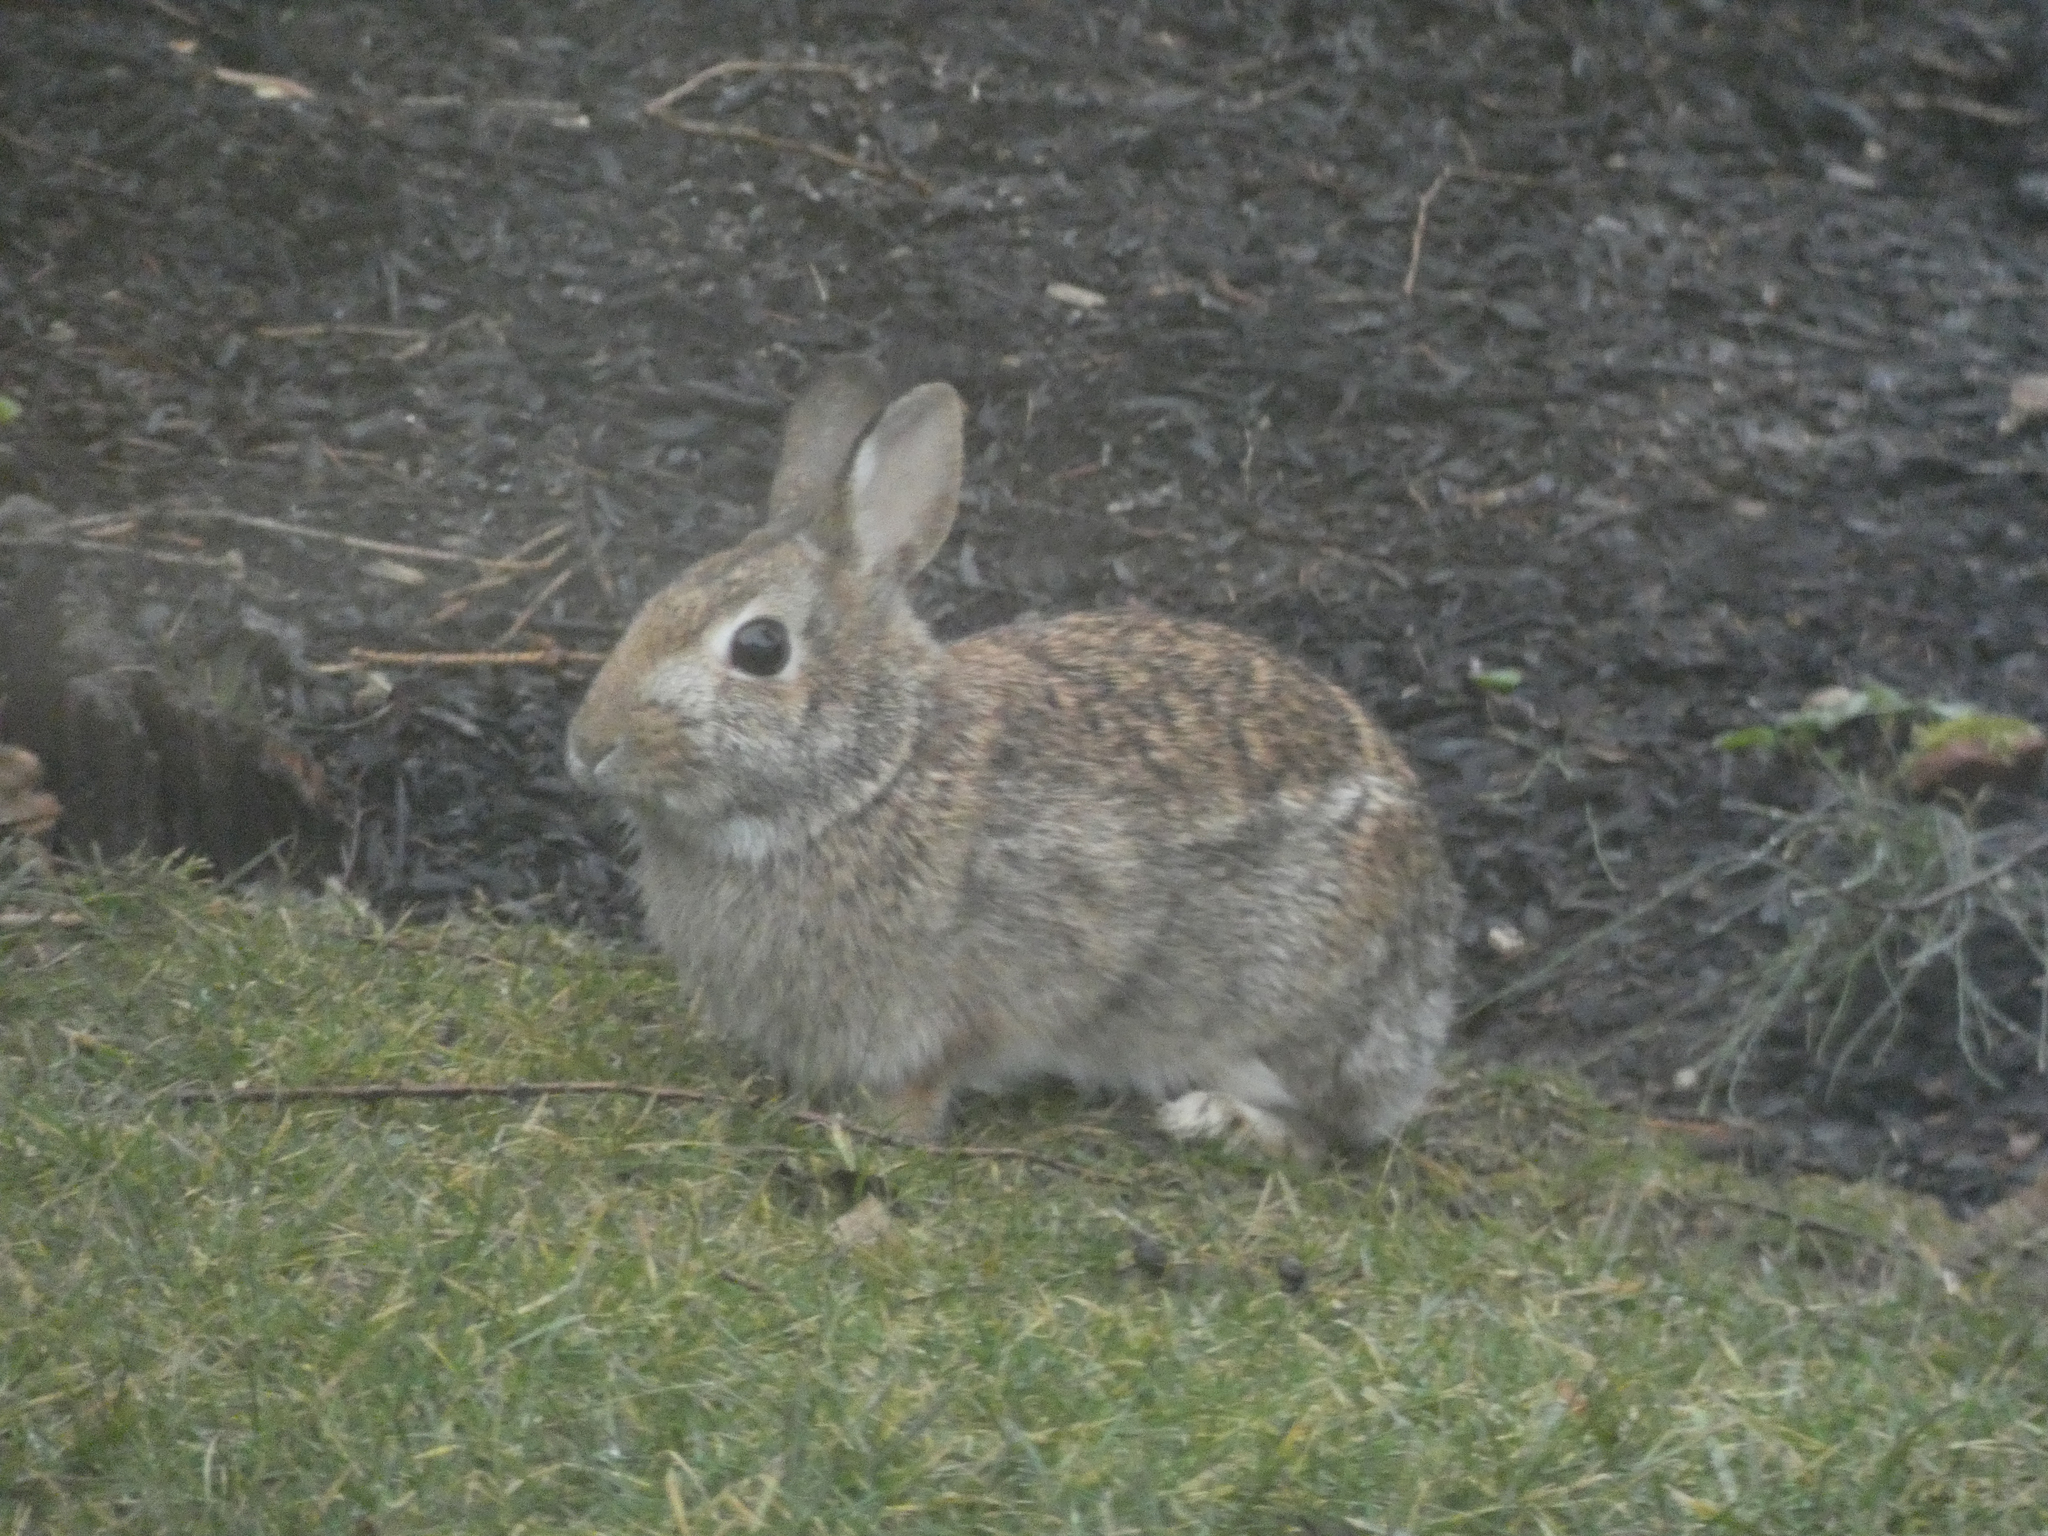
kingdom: Animalia
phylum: Chordata
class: Mammalia
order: Lagomorpha
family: Leporidae
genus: Sylvilagus
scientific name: Sylvilagus floridanus
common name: Eastern cottontail
